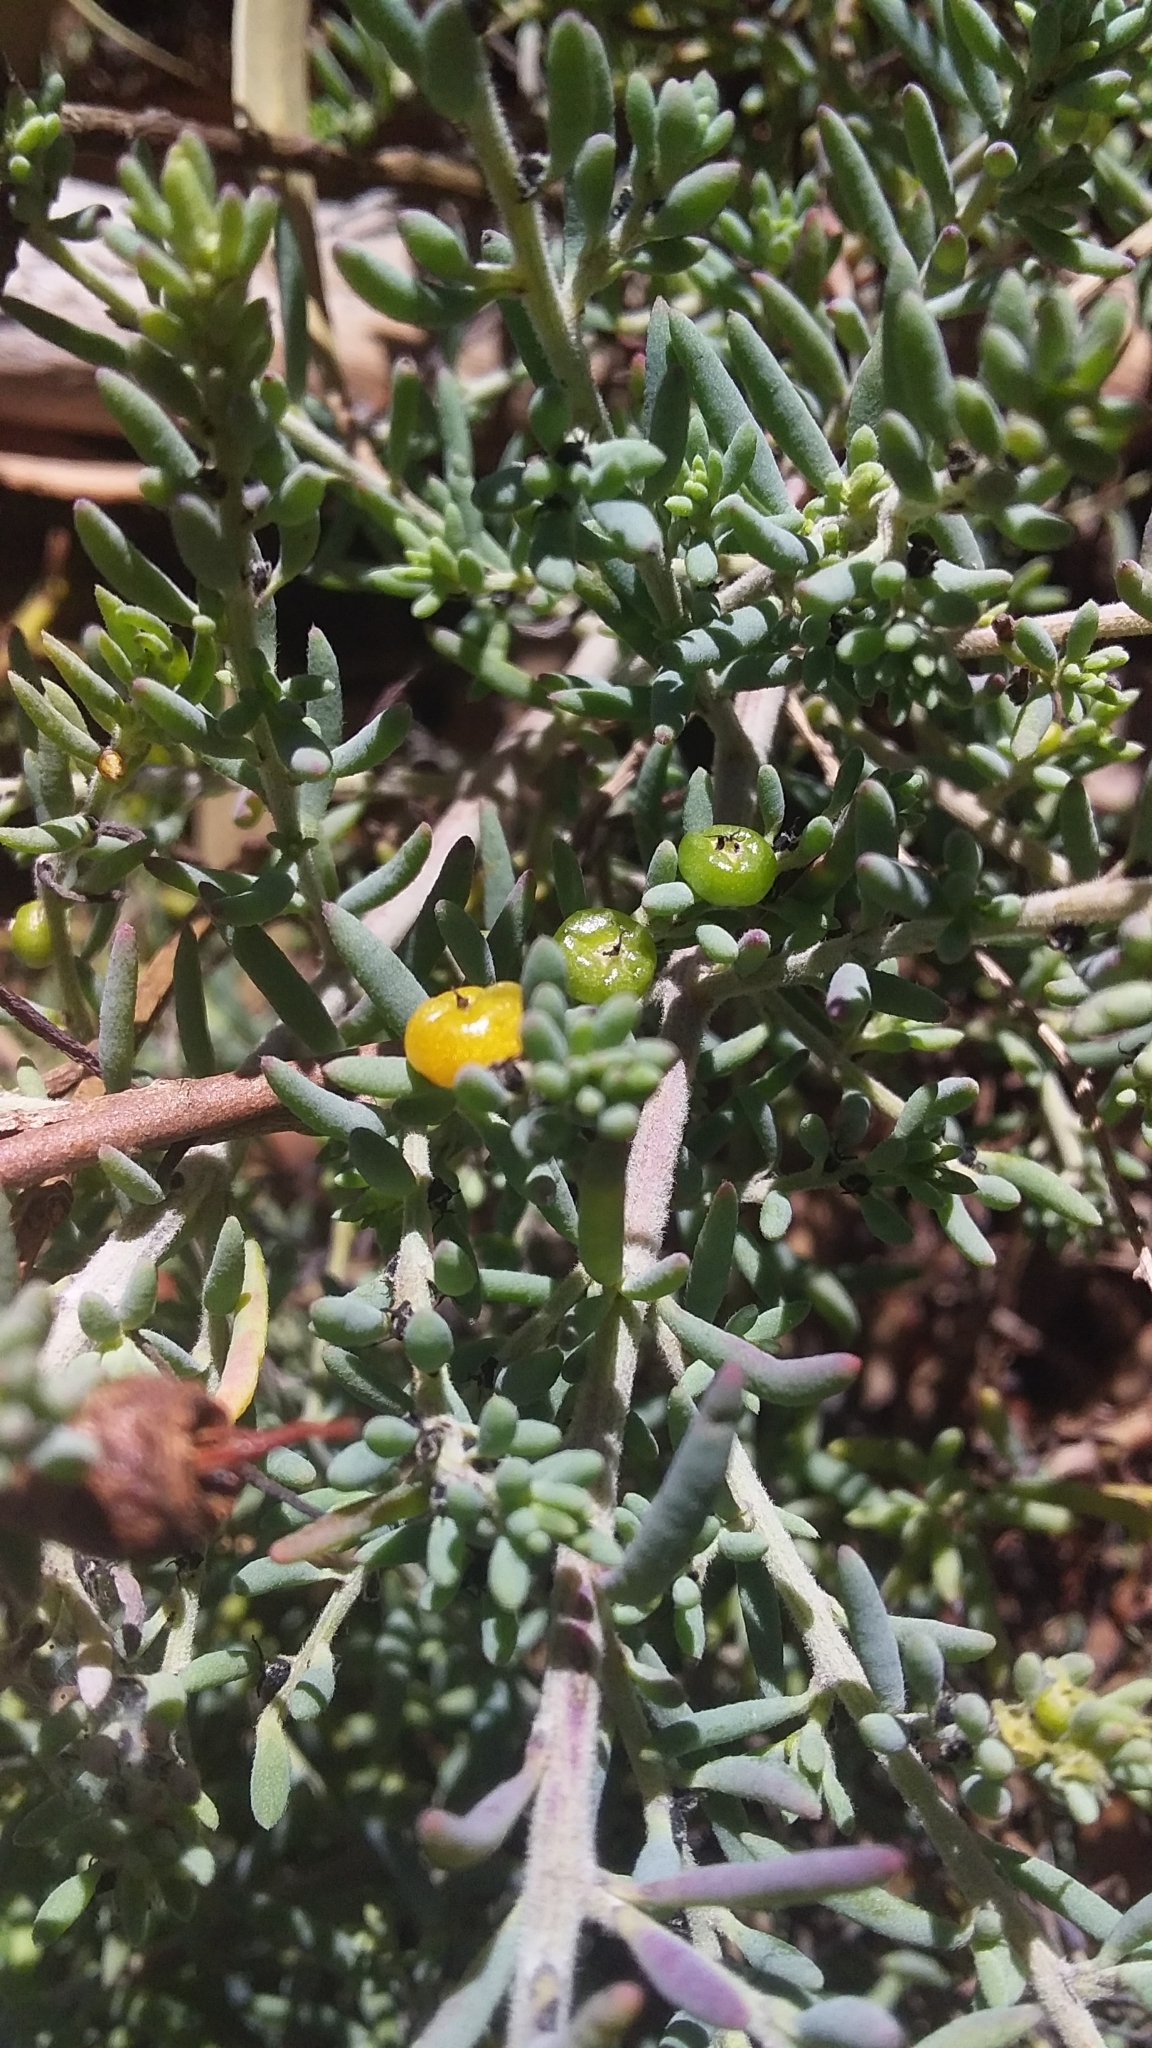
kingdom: Plantae
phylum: Tracheophyta
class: Magnoliopsida
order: Caryophyllales
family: Amaranthaceae
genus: Enchylaena
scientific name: Enchylaena tomentosa
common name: Ruby saltbush
